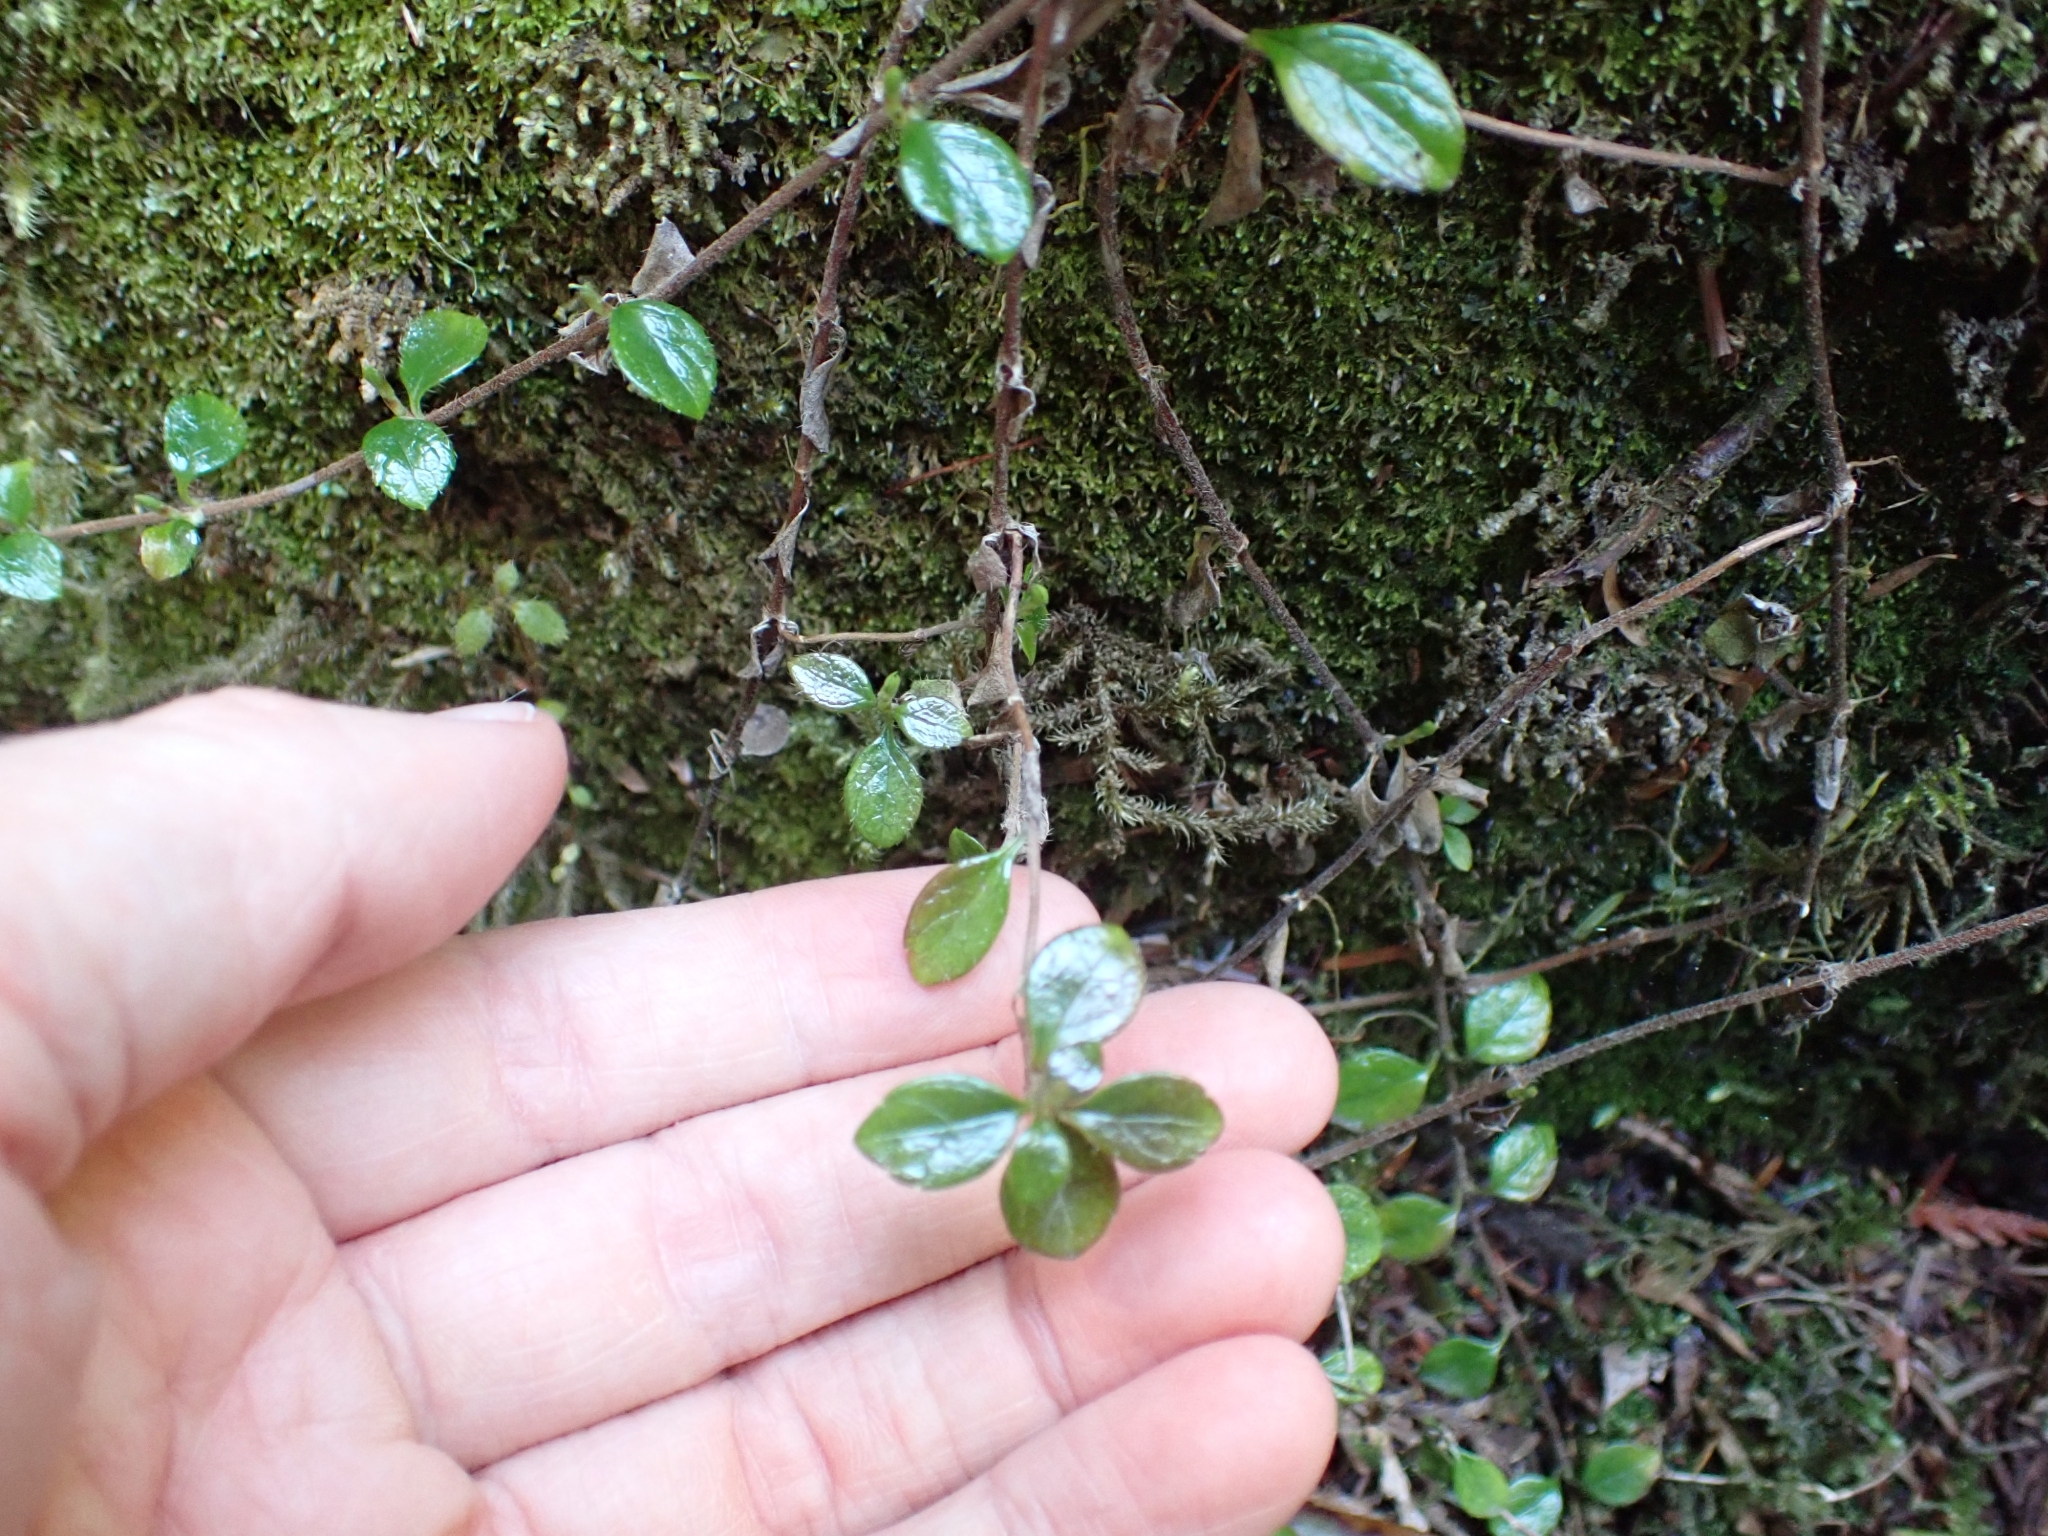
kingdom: Plantae
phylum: Tracheophyta
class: Magnoliopsida
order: Dipsacales
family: Caprifoliaceae
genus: Linnaea
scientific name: Linnaea borealis
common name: Twinflower
